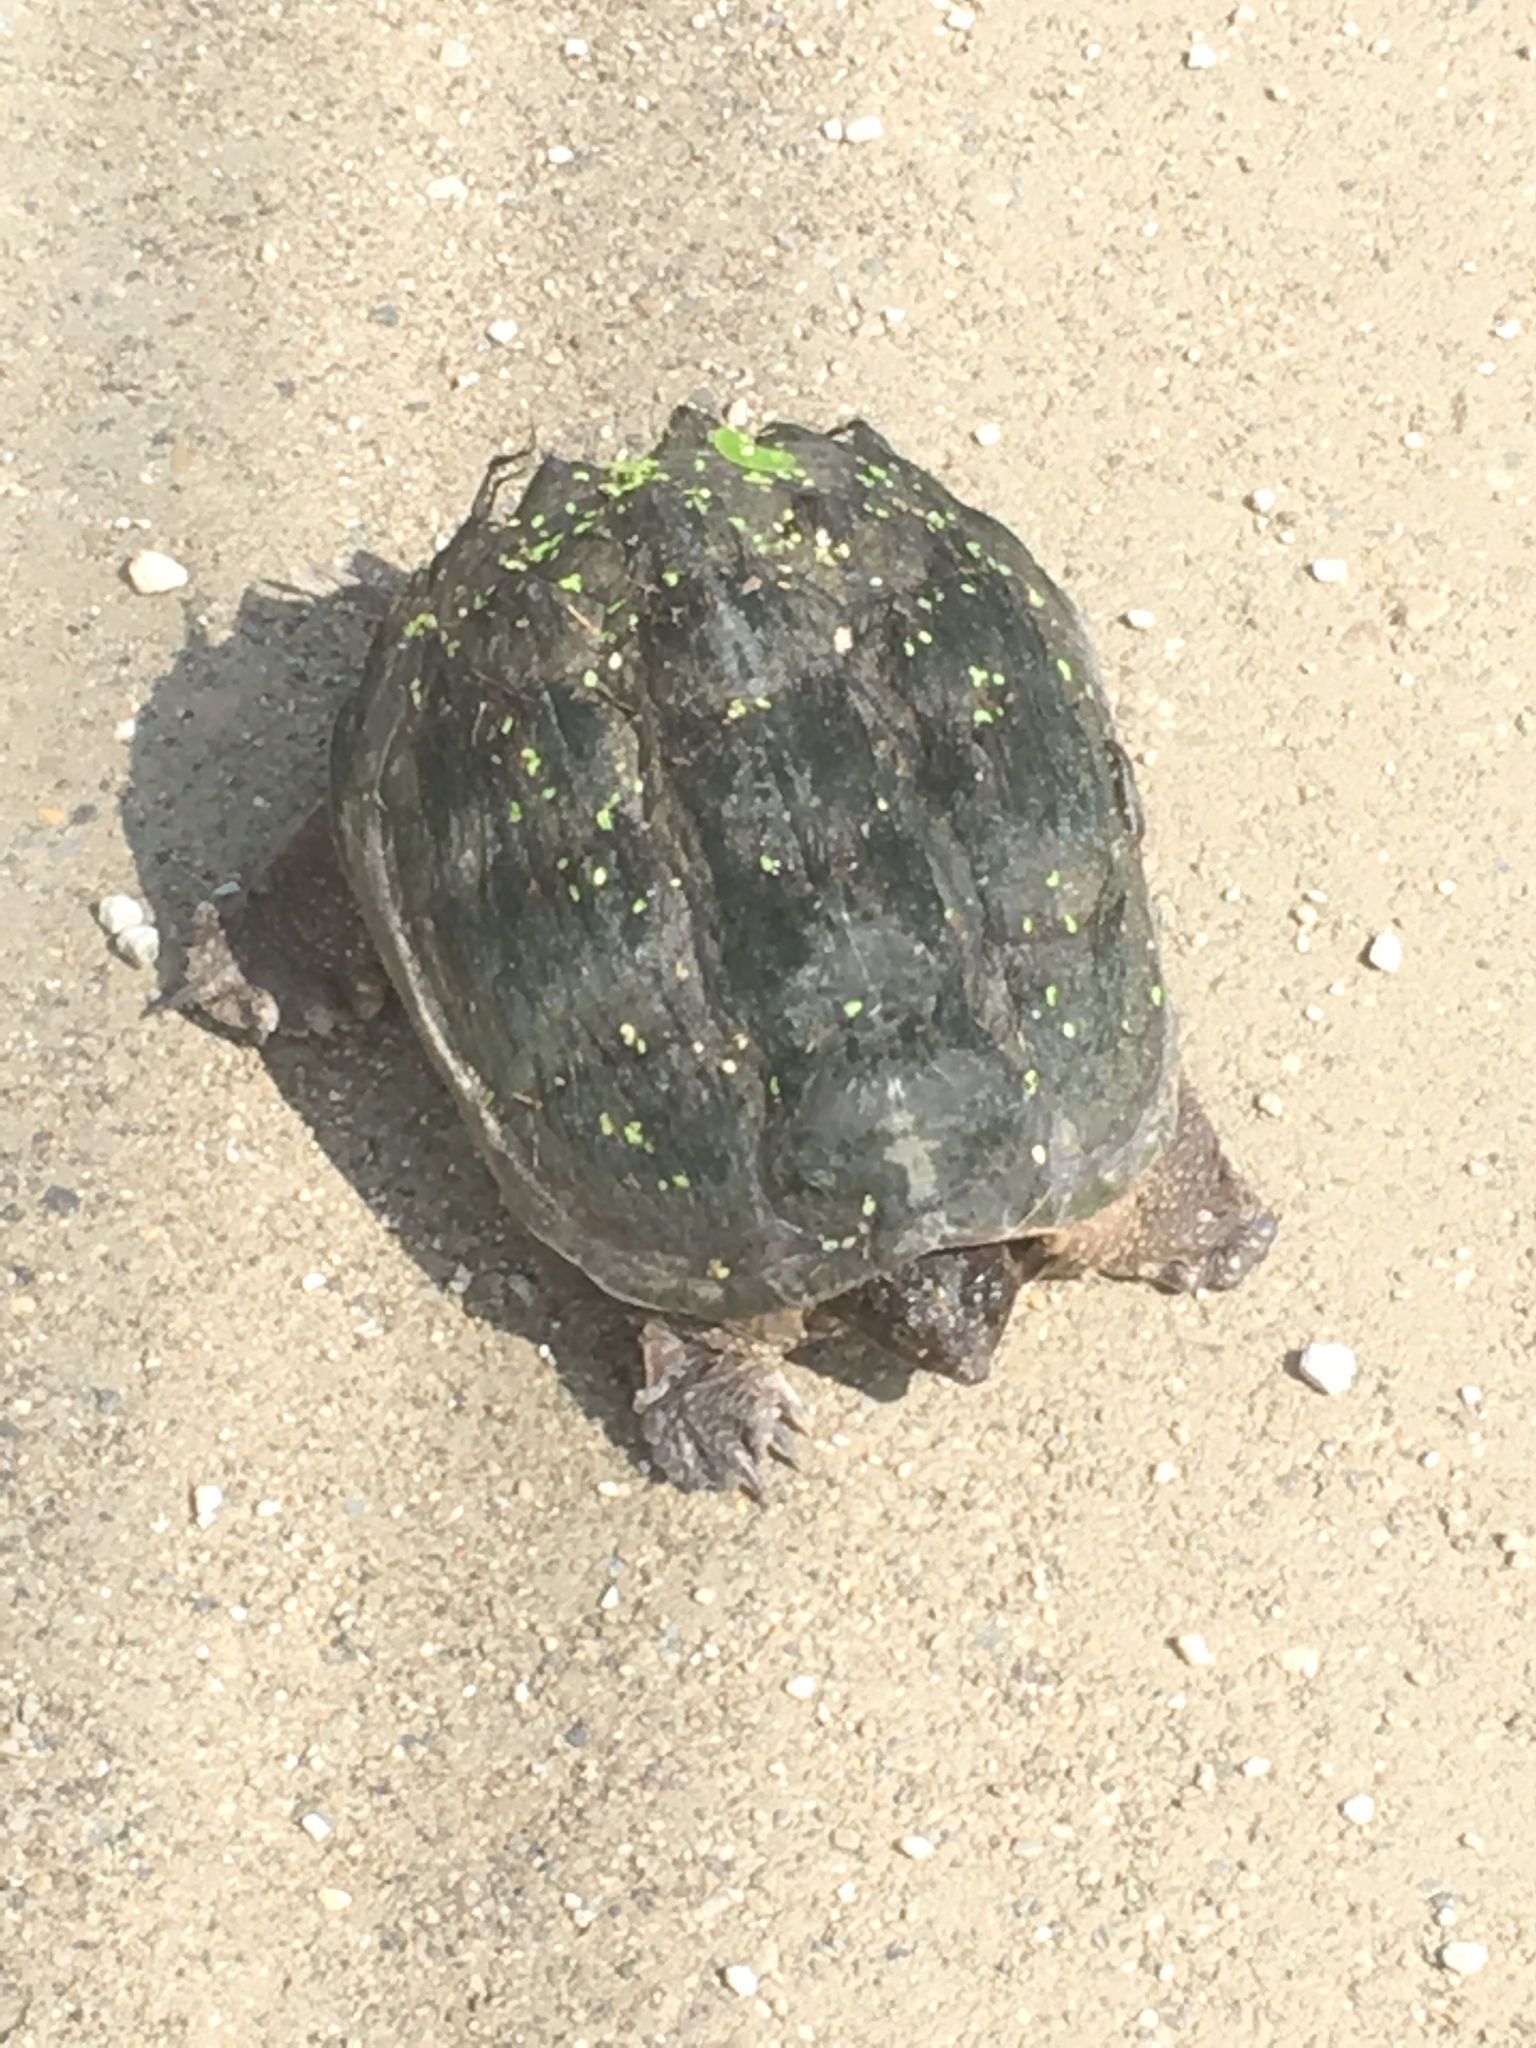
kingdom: Animalia
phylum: Chordata
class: Testudines
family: Chelydridae
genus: Chelydra
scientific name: Chelydra serpentina
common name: Common snapping turtle
